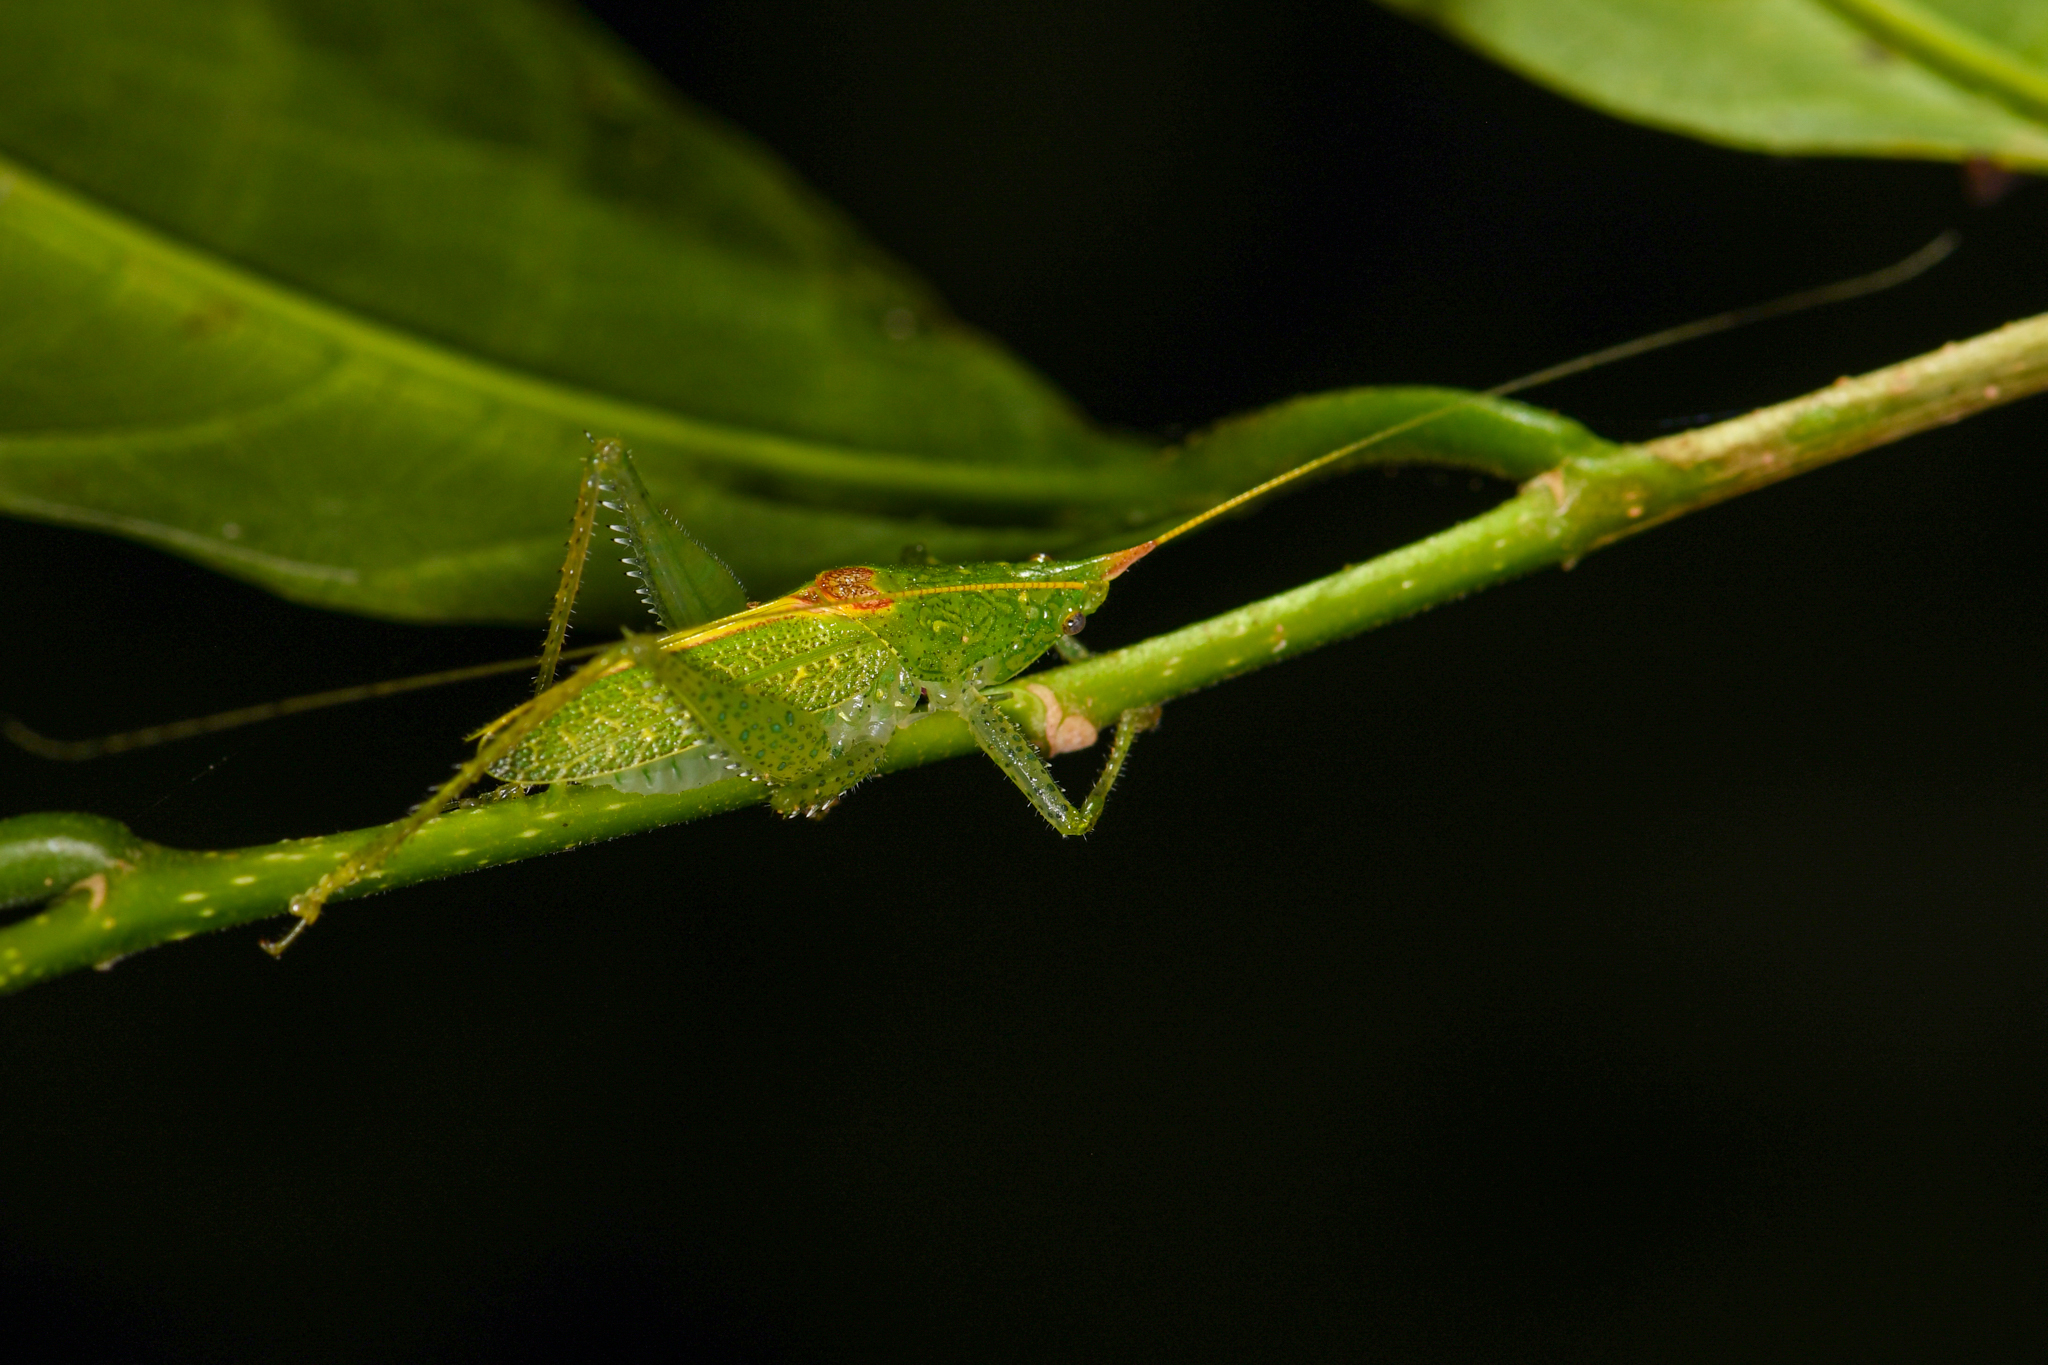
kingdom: Animalia
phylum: Arthropoda
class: Insecta
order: Orthoptera
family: Tettigoniidae
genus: Podacanthophorus
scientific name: Podacanthophorus nelciae
